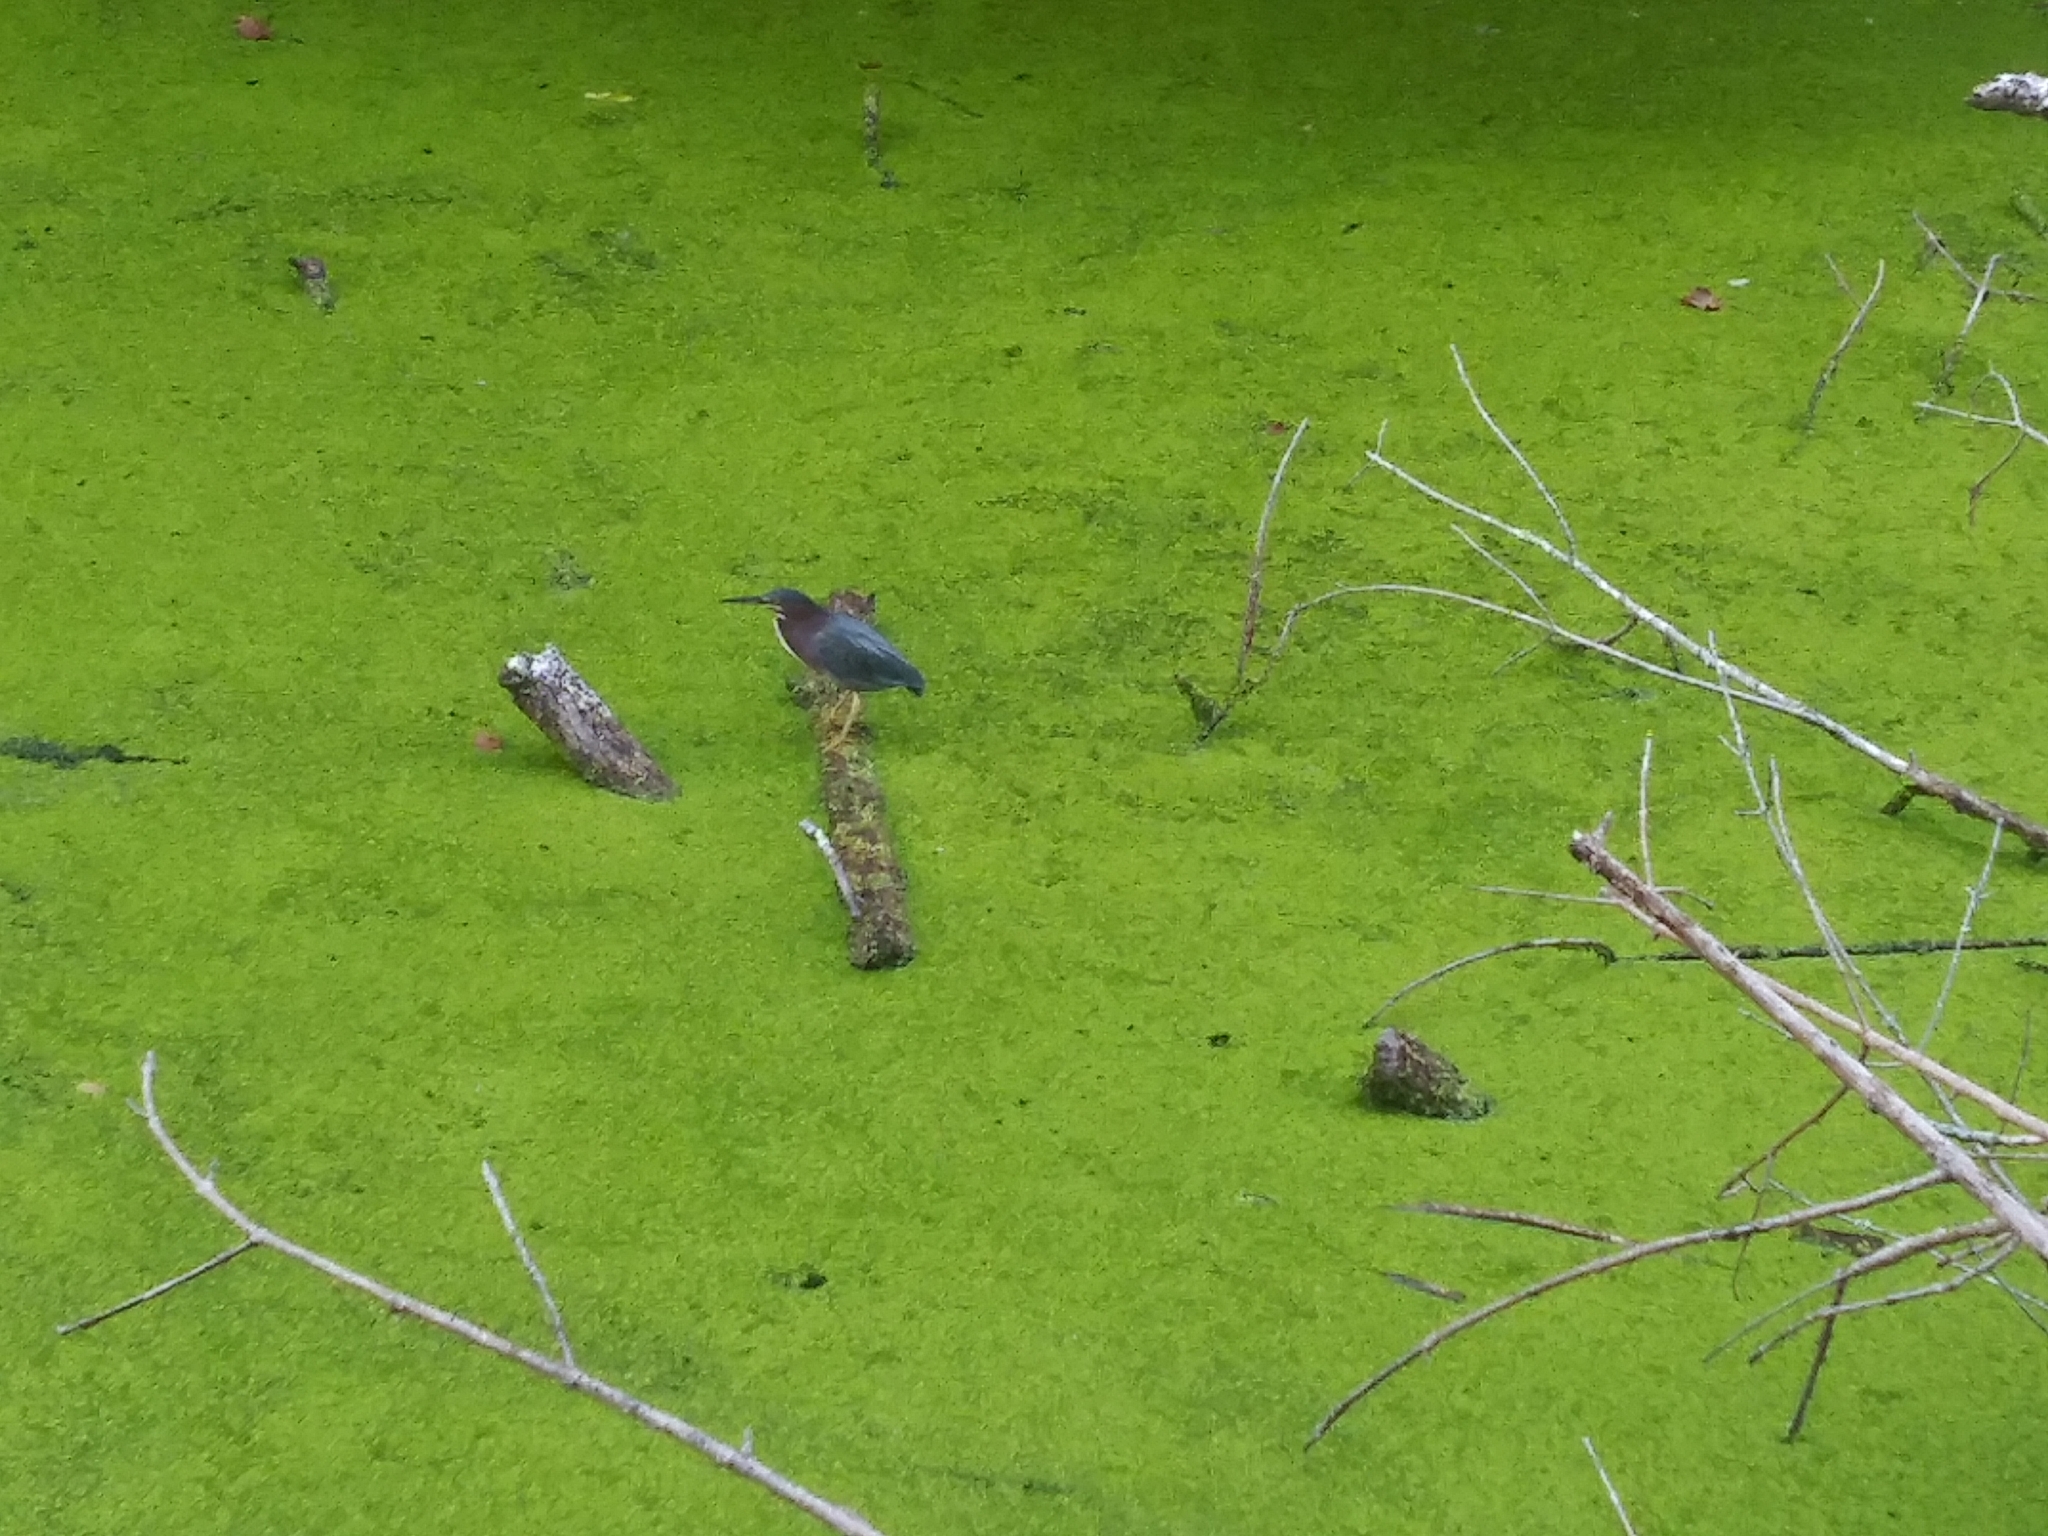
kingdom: Animalia
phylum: Chordata
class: Aves
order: Pelecaniformes
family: Ardeidae
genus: Butorides
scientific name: Butorides virescens
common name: Green heron
